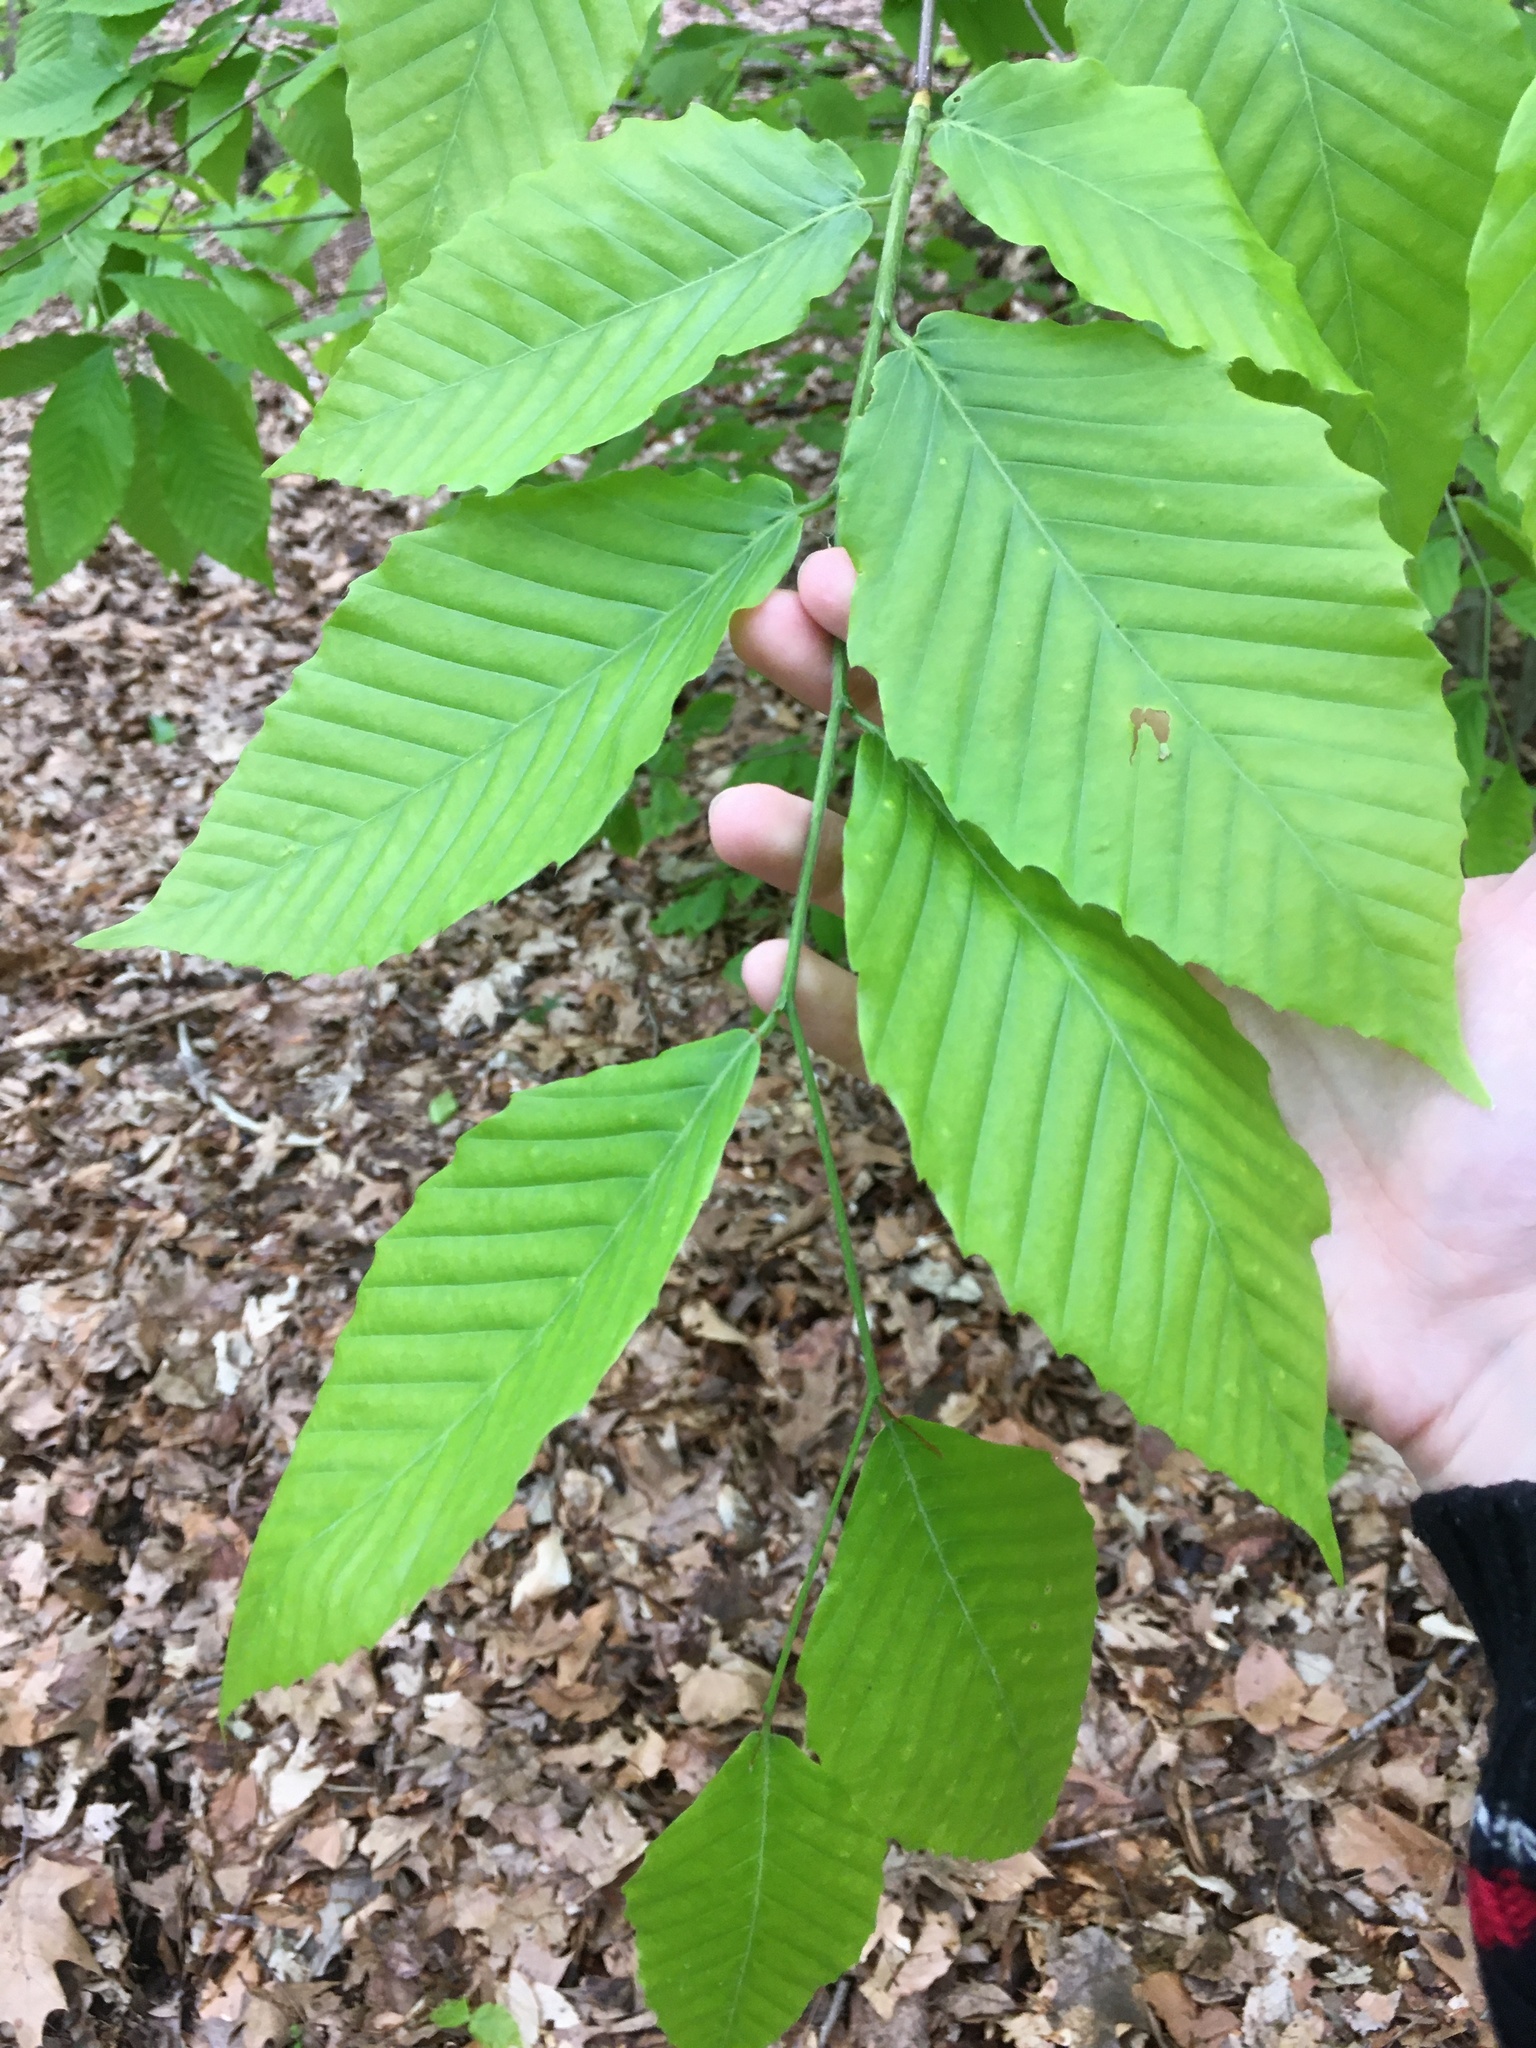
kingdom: Plantae
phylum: Tracheophyta
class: Magnoliopsida
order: Fagales
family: Fagaceae
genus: Fagus
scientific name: Fagus grandifolia
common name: American beech
